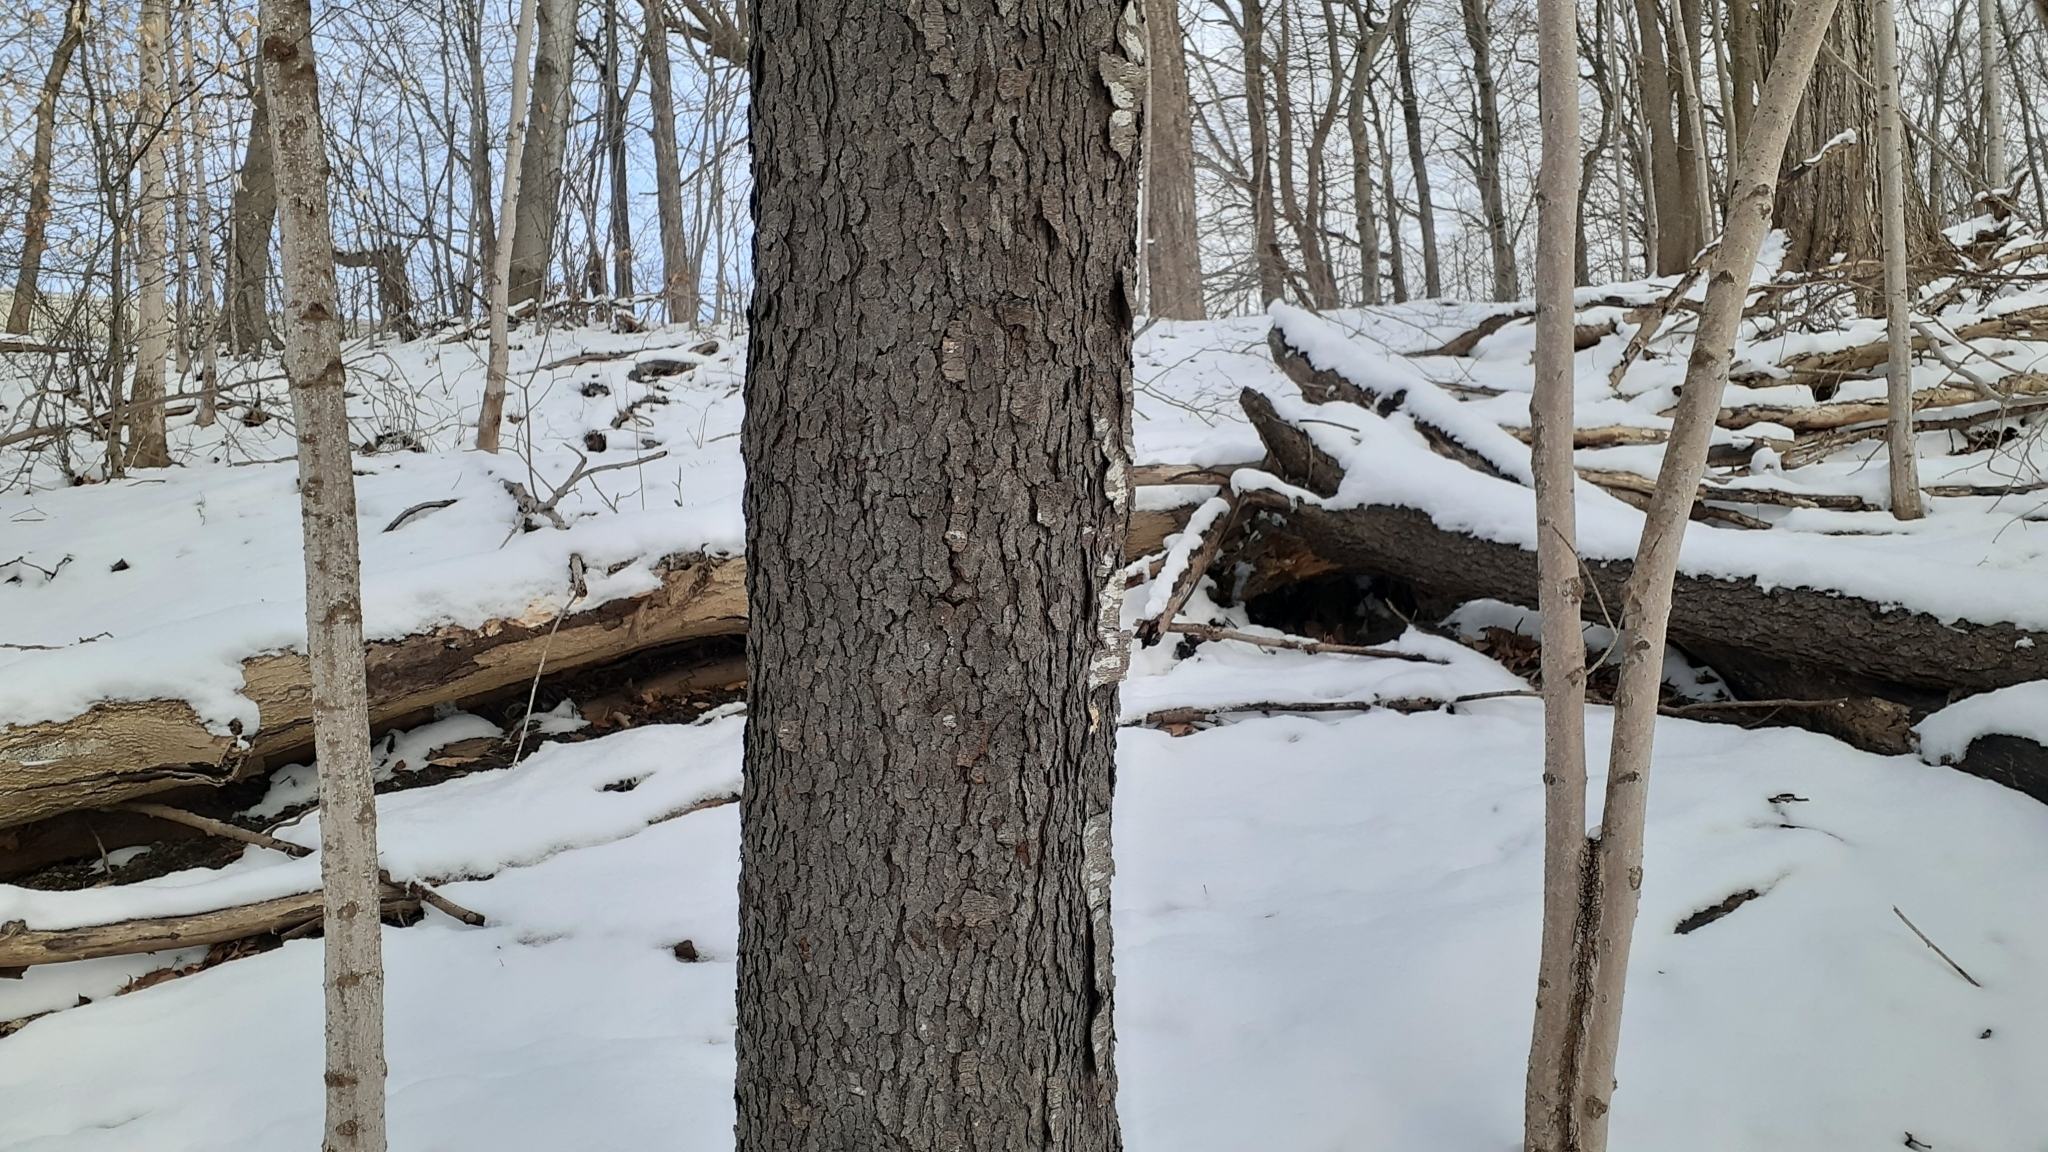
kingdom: Plantae
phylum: Tracheophyta
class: Magnoliopsida
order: Rosales
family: Rosaceae
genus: Prunus
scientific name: Prunus serotina
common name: Black cherry
